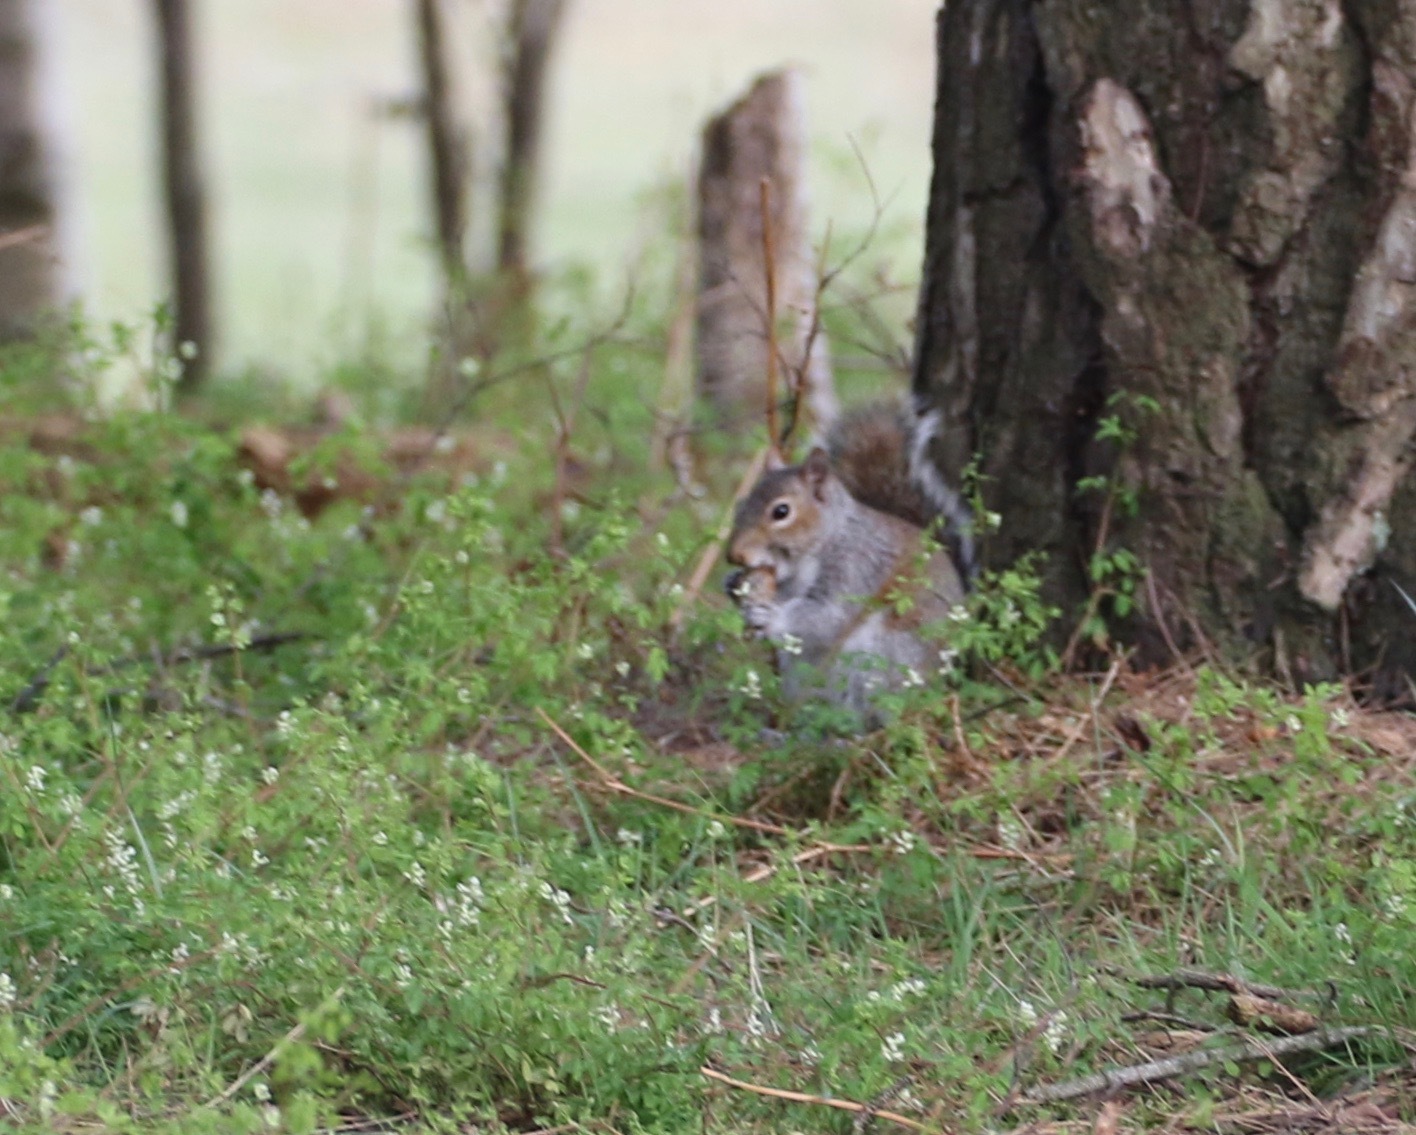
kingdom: Animalia
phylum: Chordata
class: Mammalia
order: Rodentia
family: Sciuridae
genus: Sciurus
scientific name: Sciurus carolinensis
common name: Eastern gray squirrel
